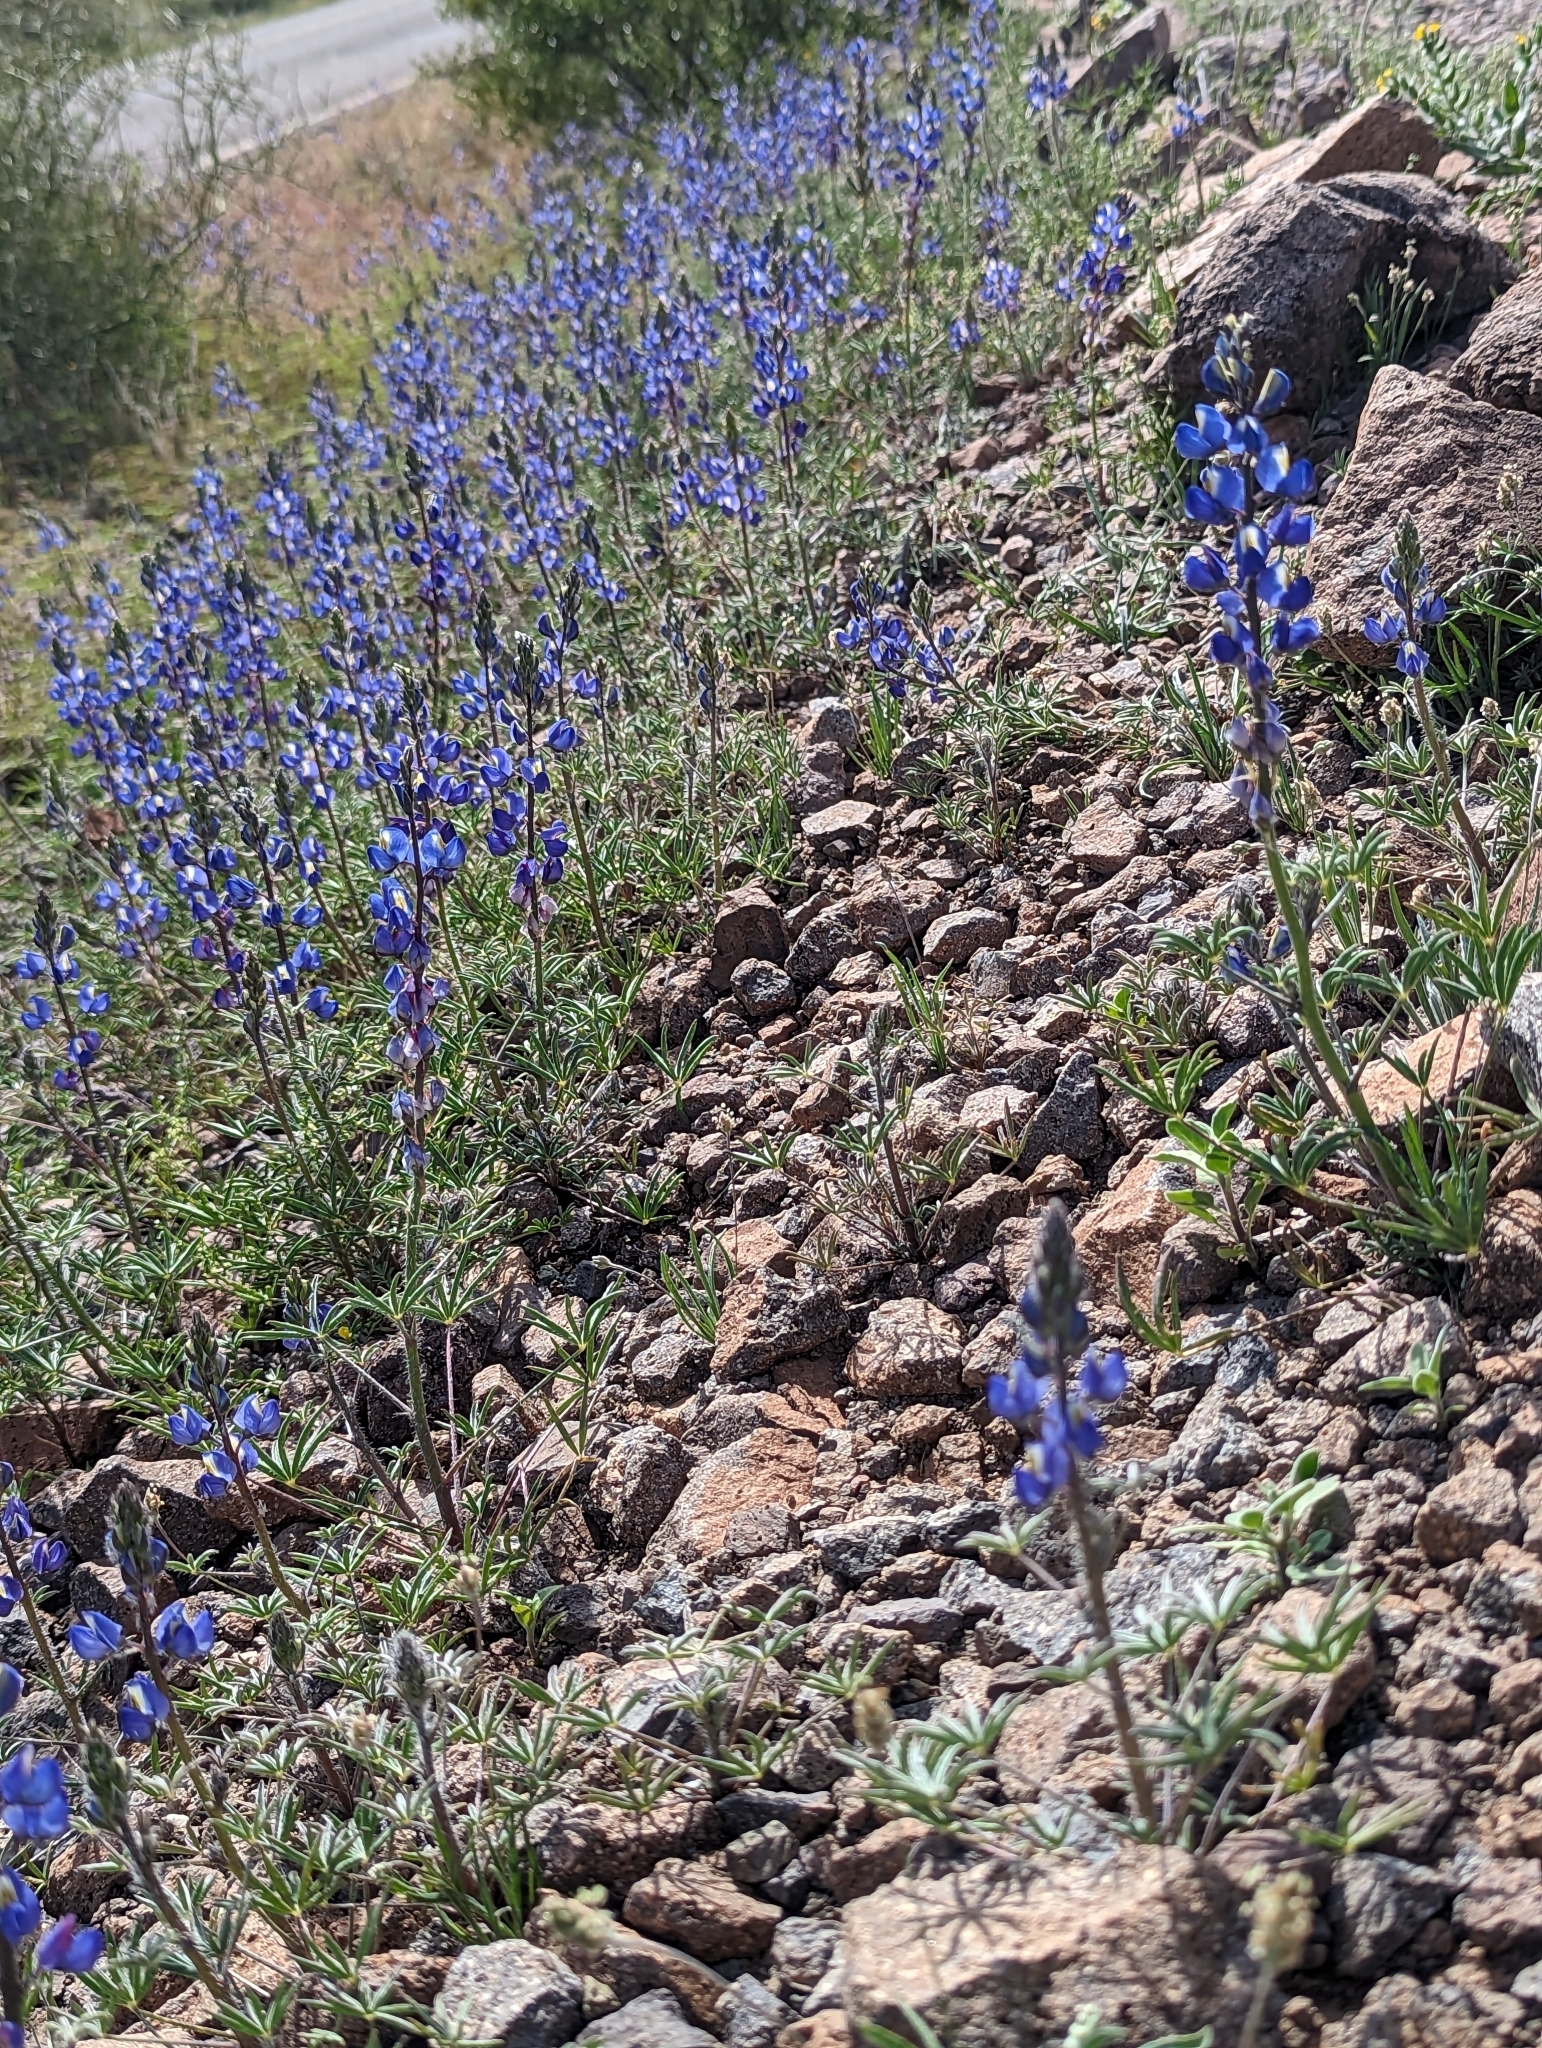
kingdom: Plantae
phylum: Tracheophyta
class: Magnoliopsida
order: Fabales
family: Fabaceae
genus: Lupinus
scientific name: Lupinus sparsiflorus
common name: Coulter's lupine
